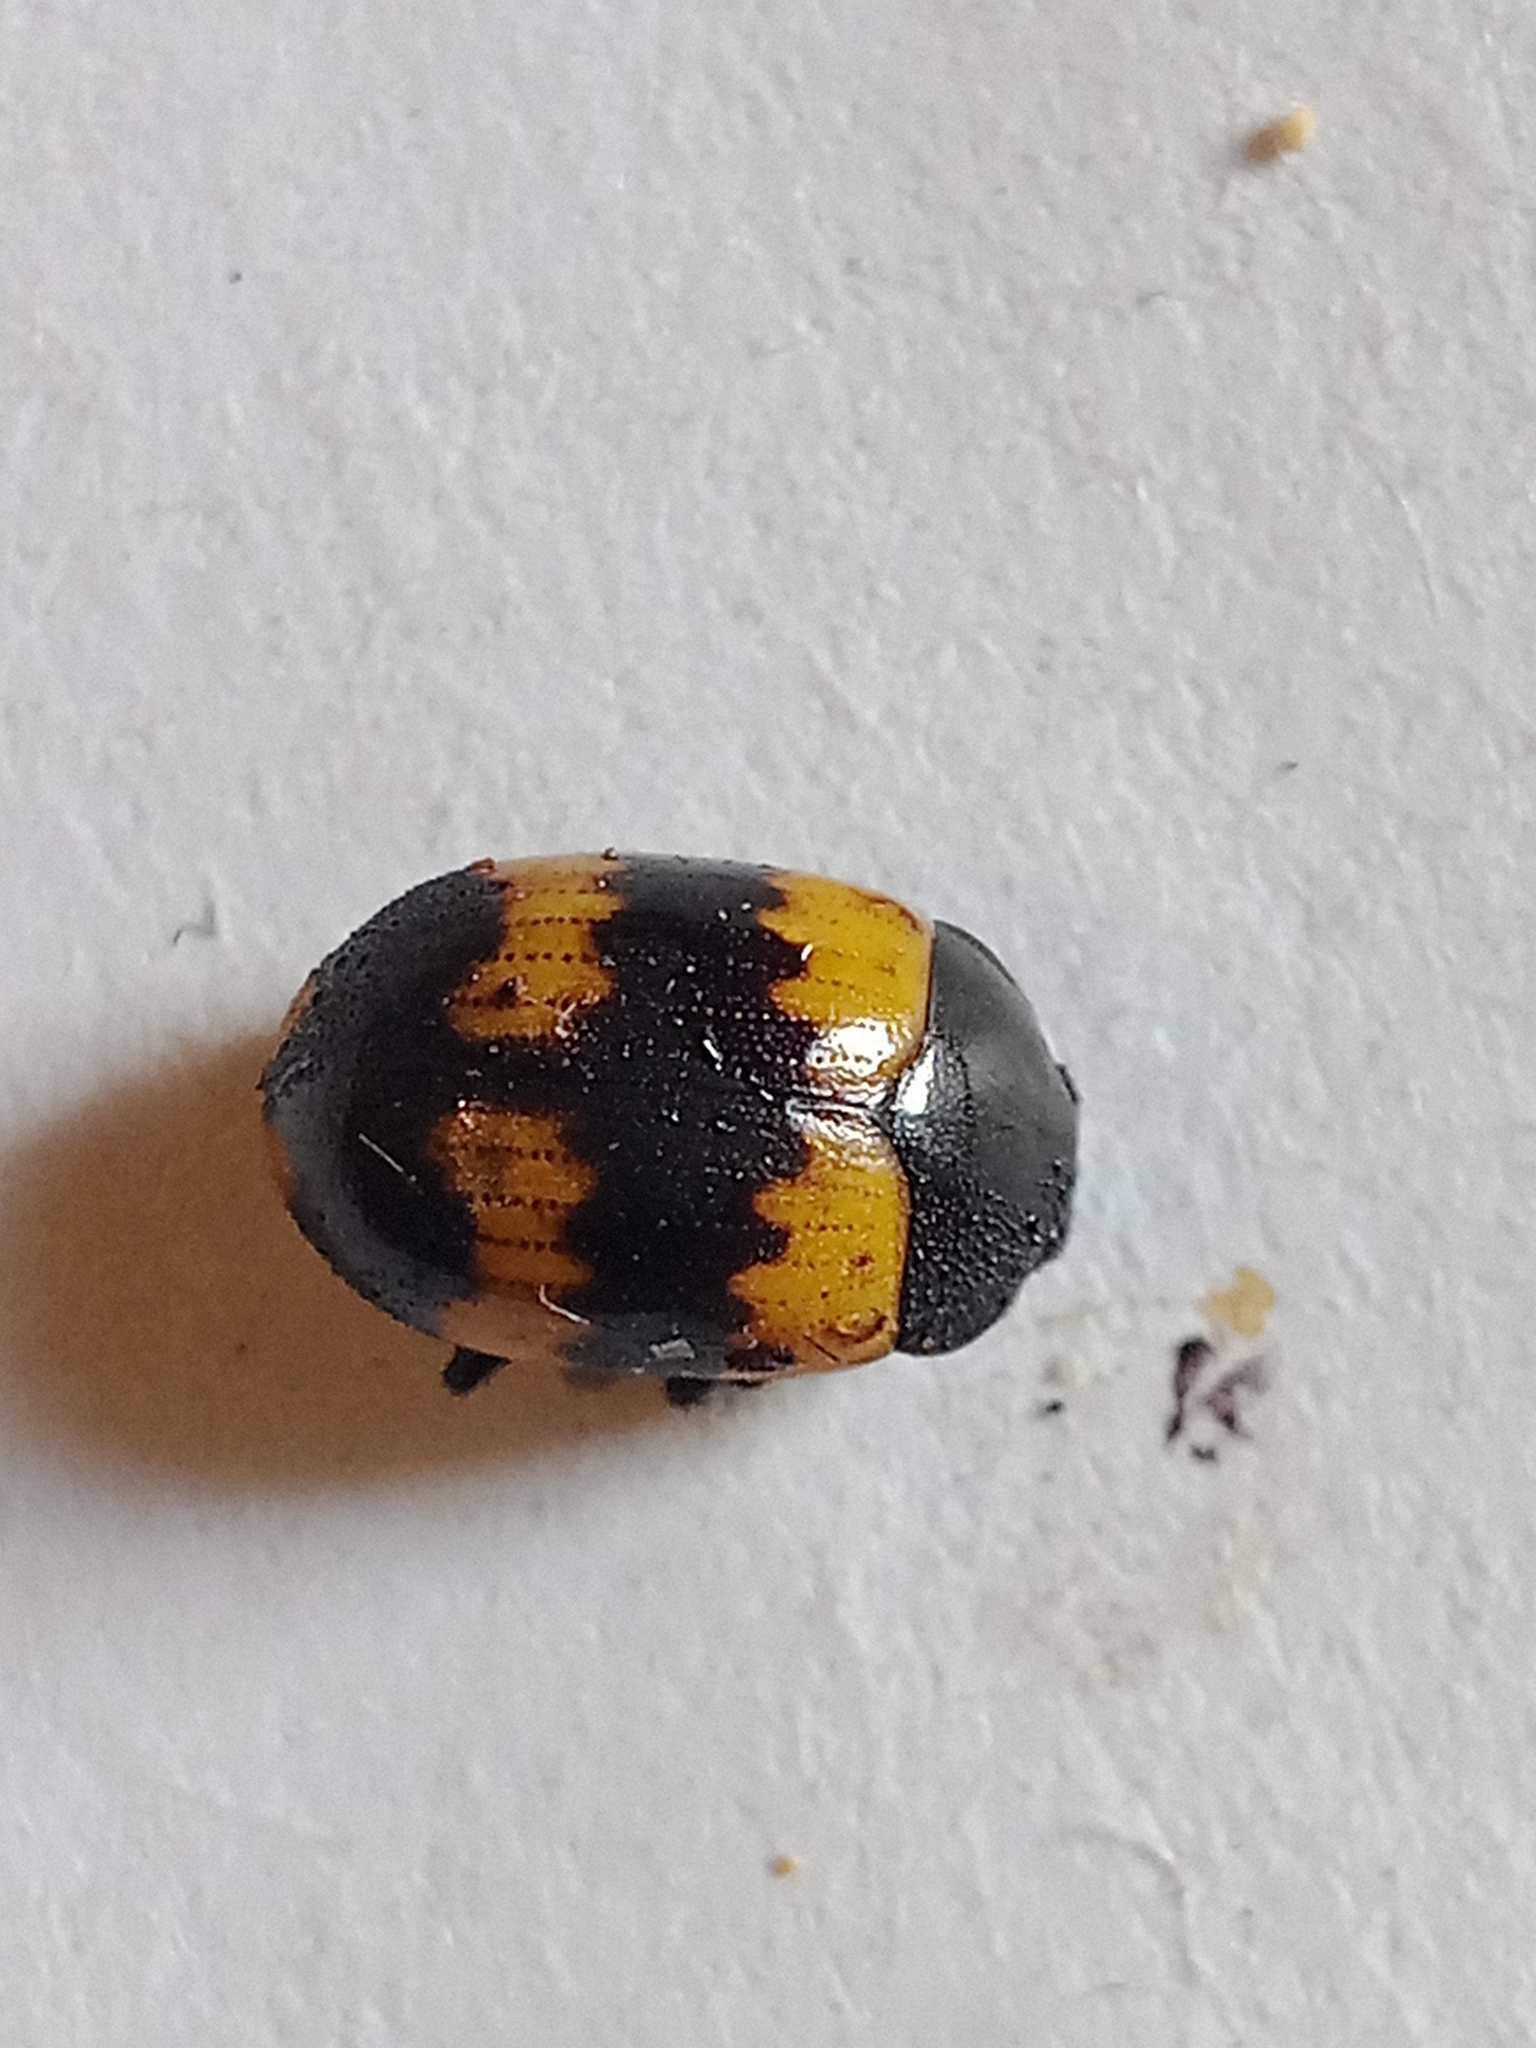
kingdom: Animalia
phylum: Arthropoda
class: Insecta
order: Coleoptera
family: Tenebrionidae
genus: Diaperis
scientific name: Diaperis boleti
